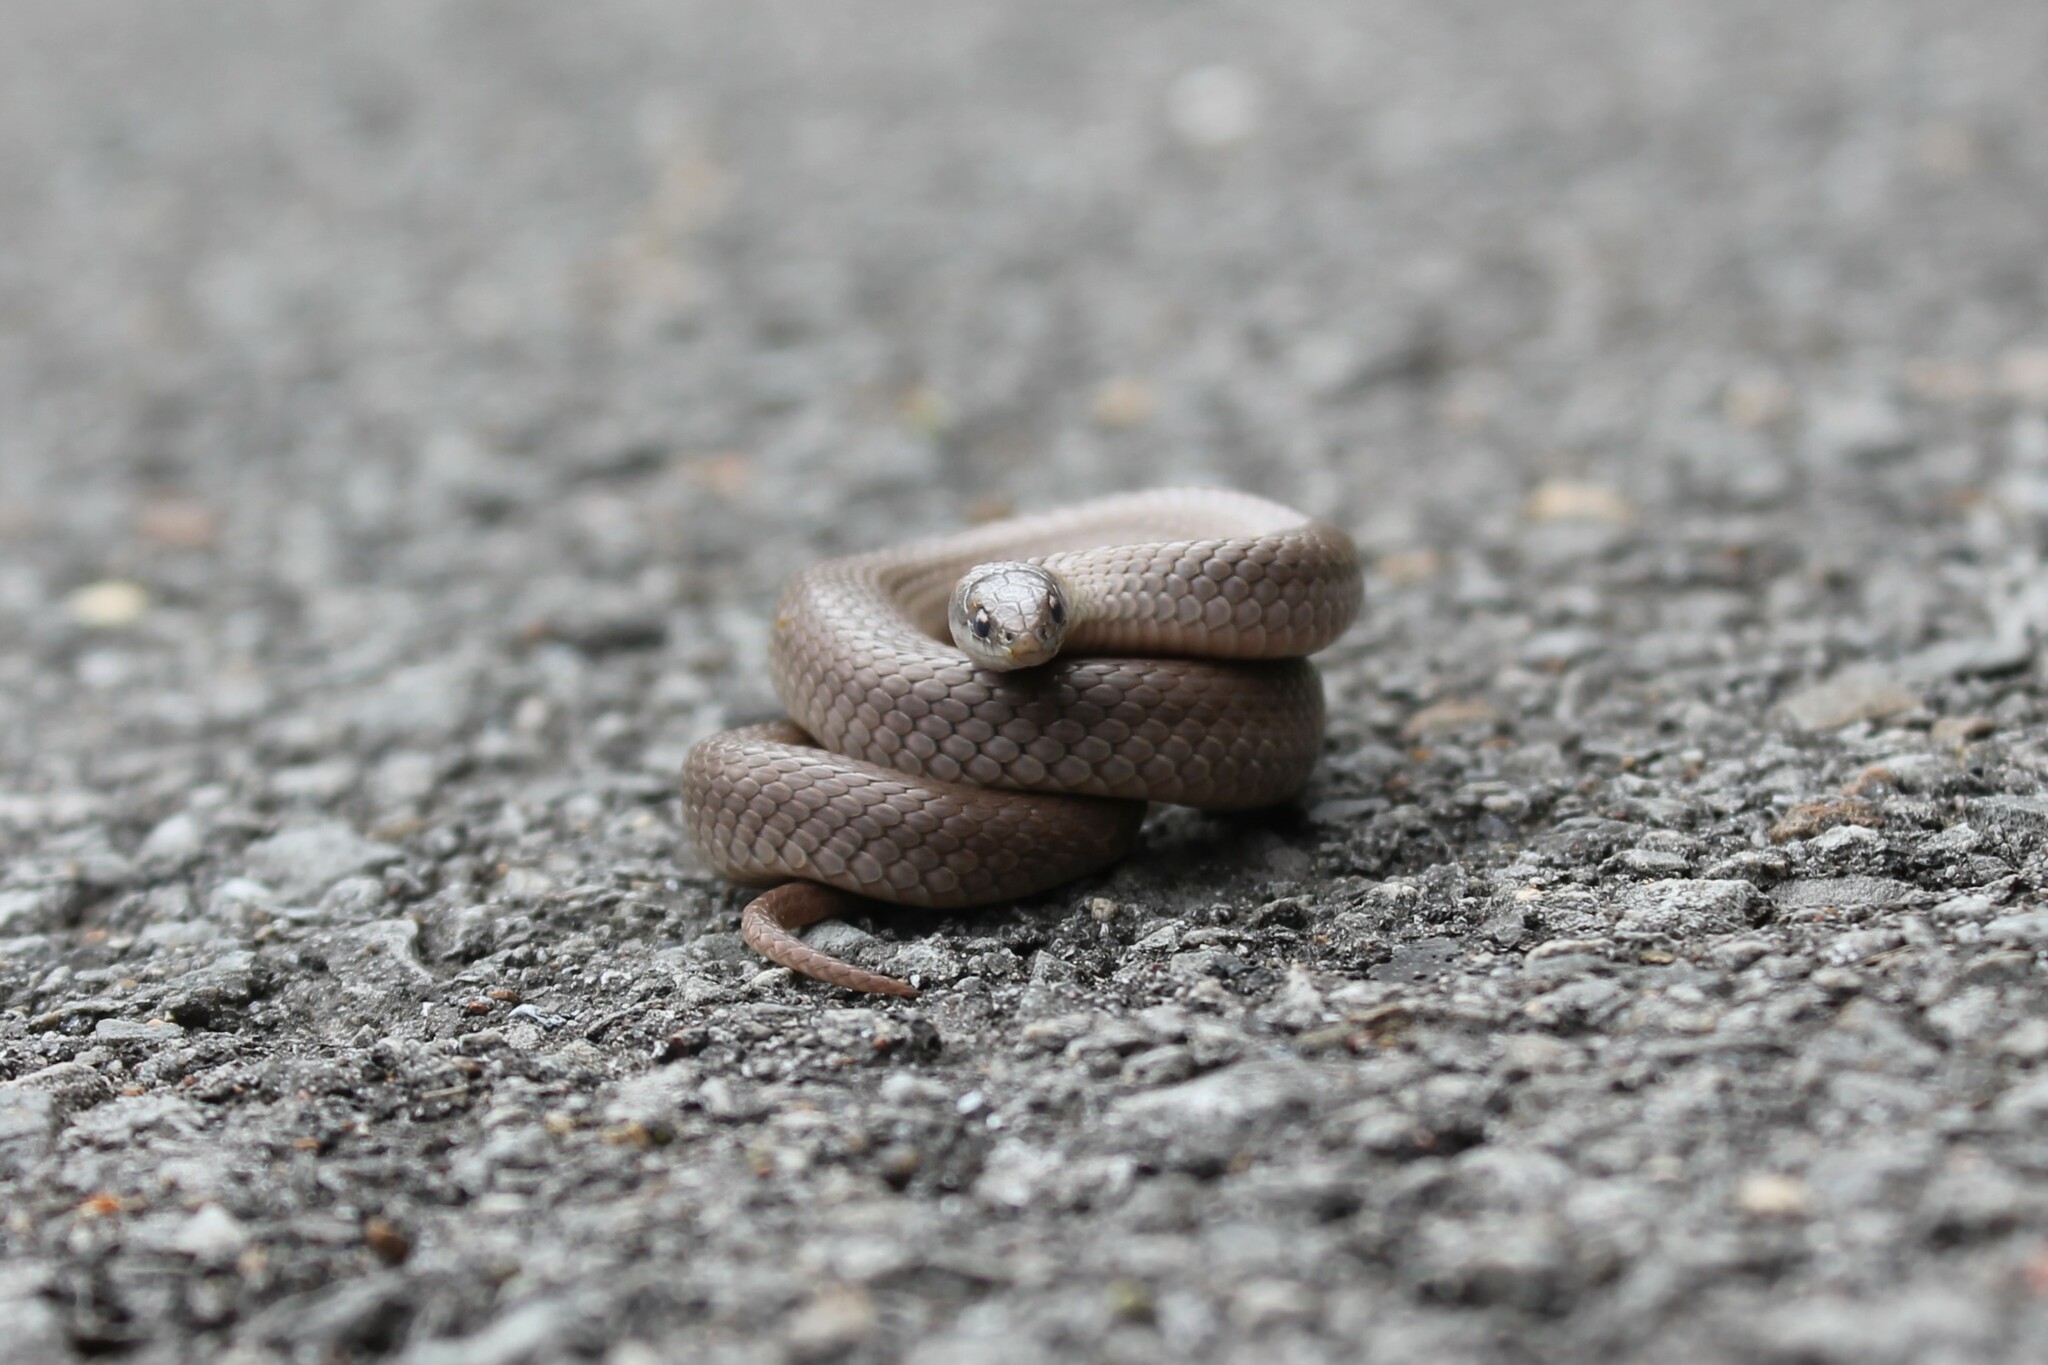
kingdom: Animalia
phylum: Chordata
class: Squamata
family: Colubridae
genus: Virginia
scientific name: Virginia valeriae
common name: Smooth earth snake
